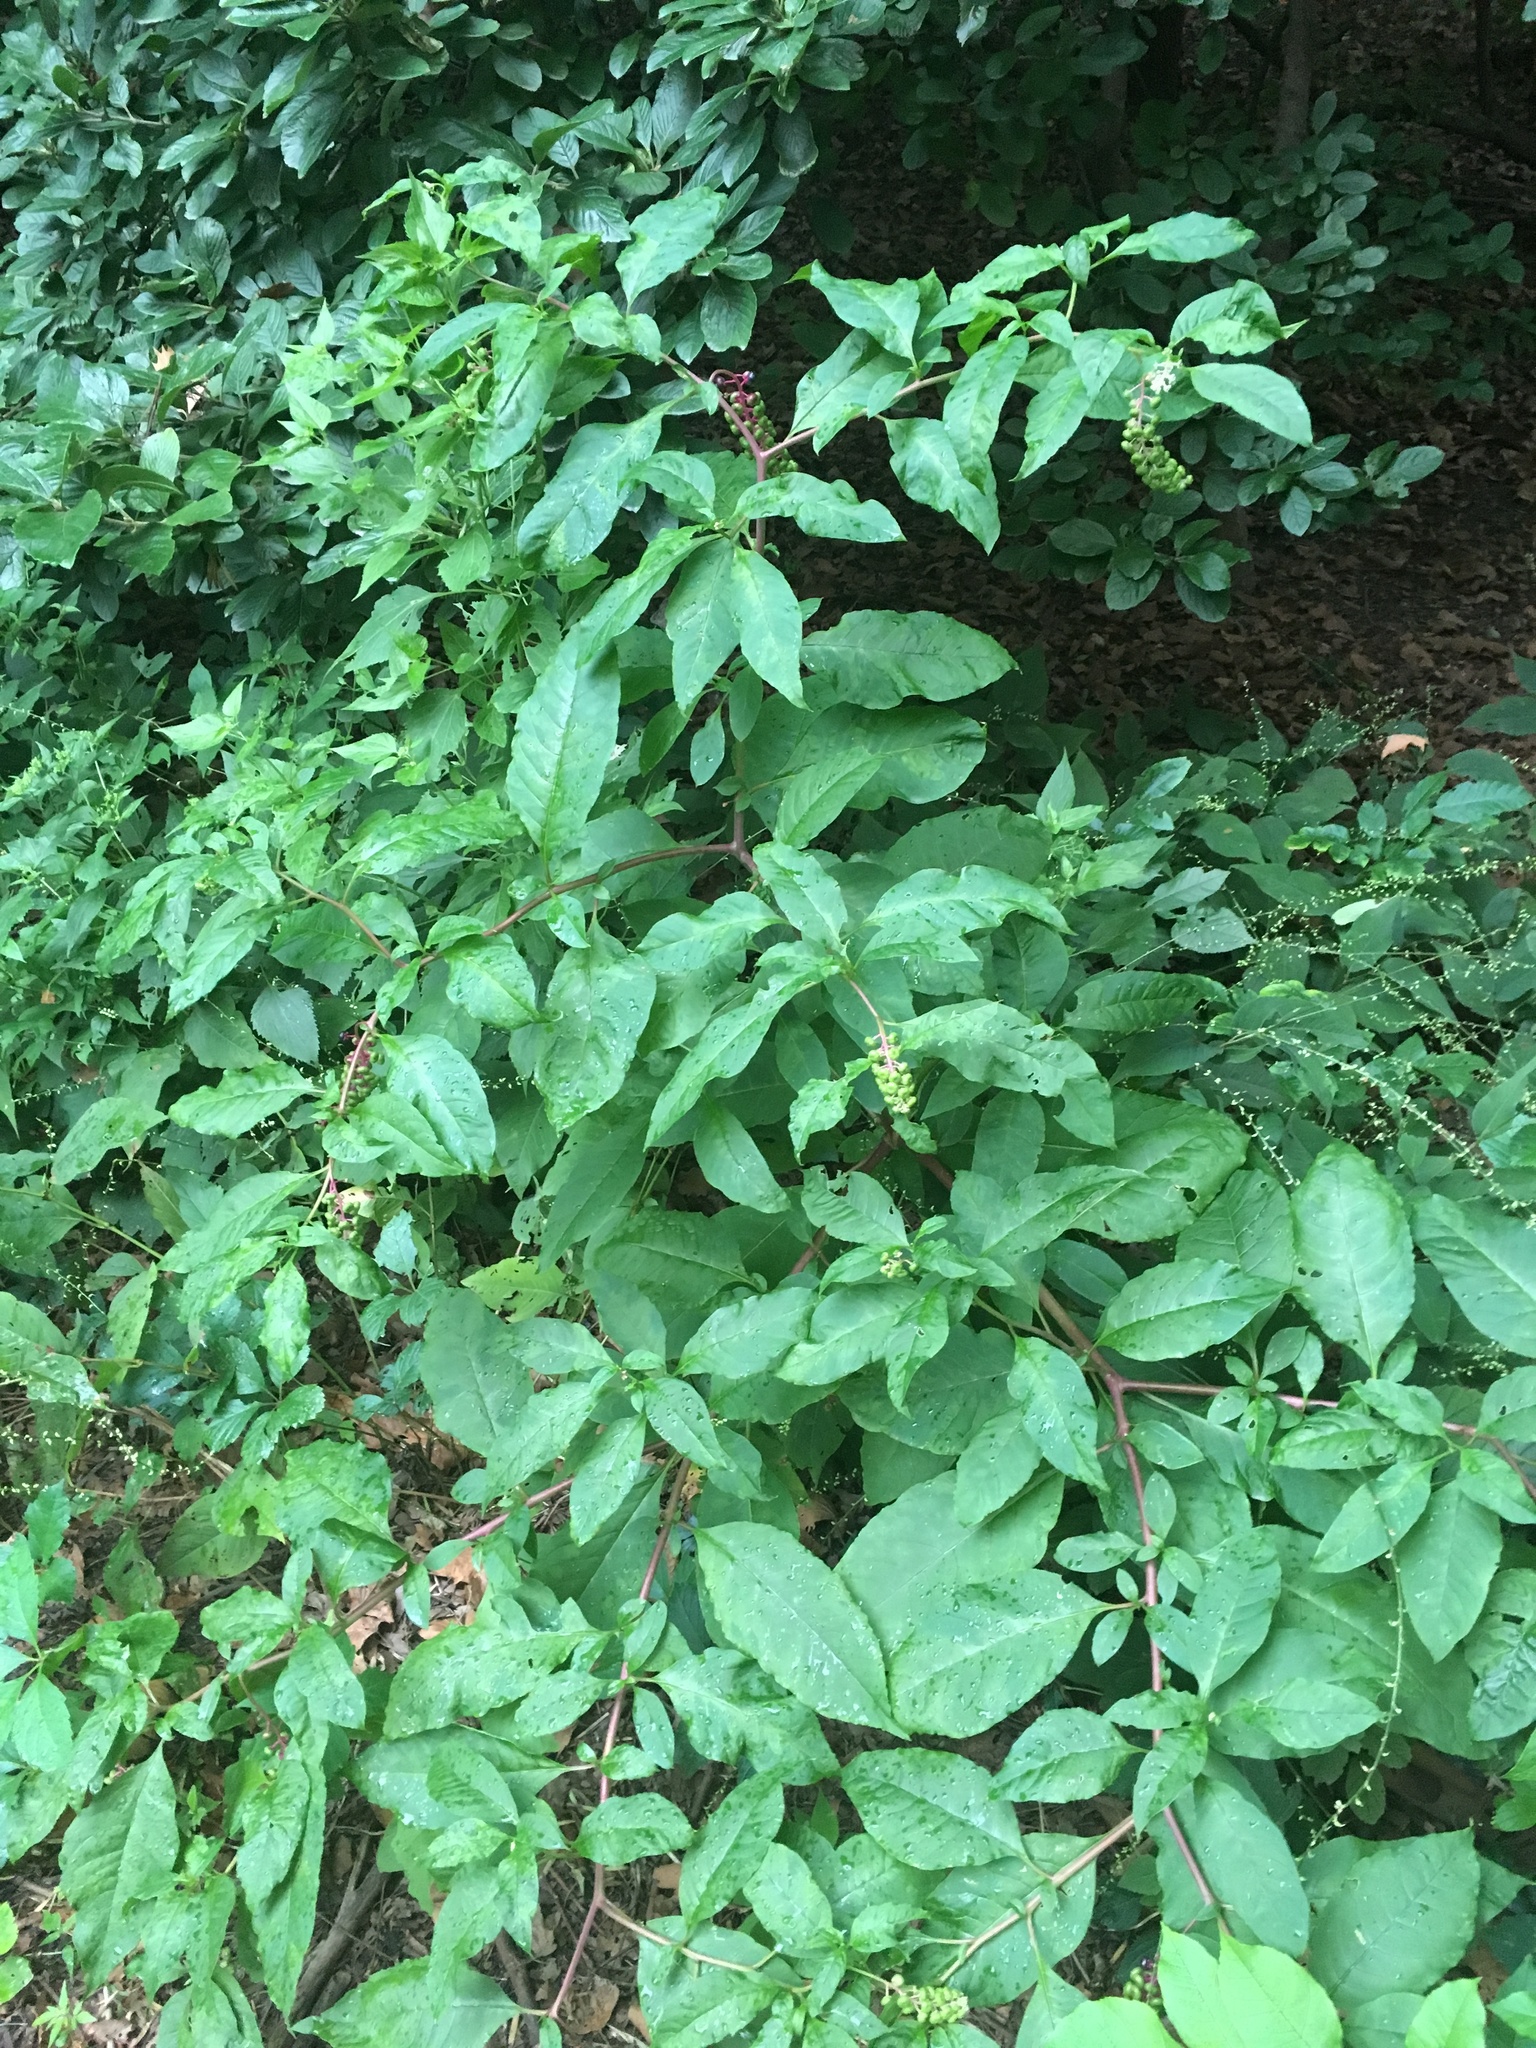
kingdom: Plantae
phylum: Tracheophyta
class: Magnoliopsida
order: Caryophyllales
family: Phytolaccaceae
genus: Phytolacca
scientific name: Phytolacca americana
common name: American pokeweed
